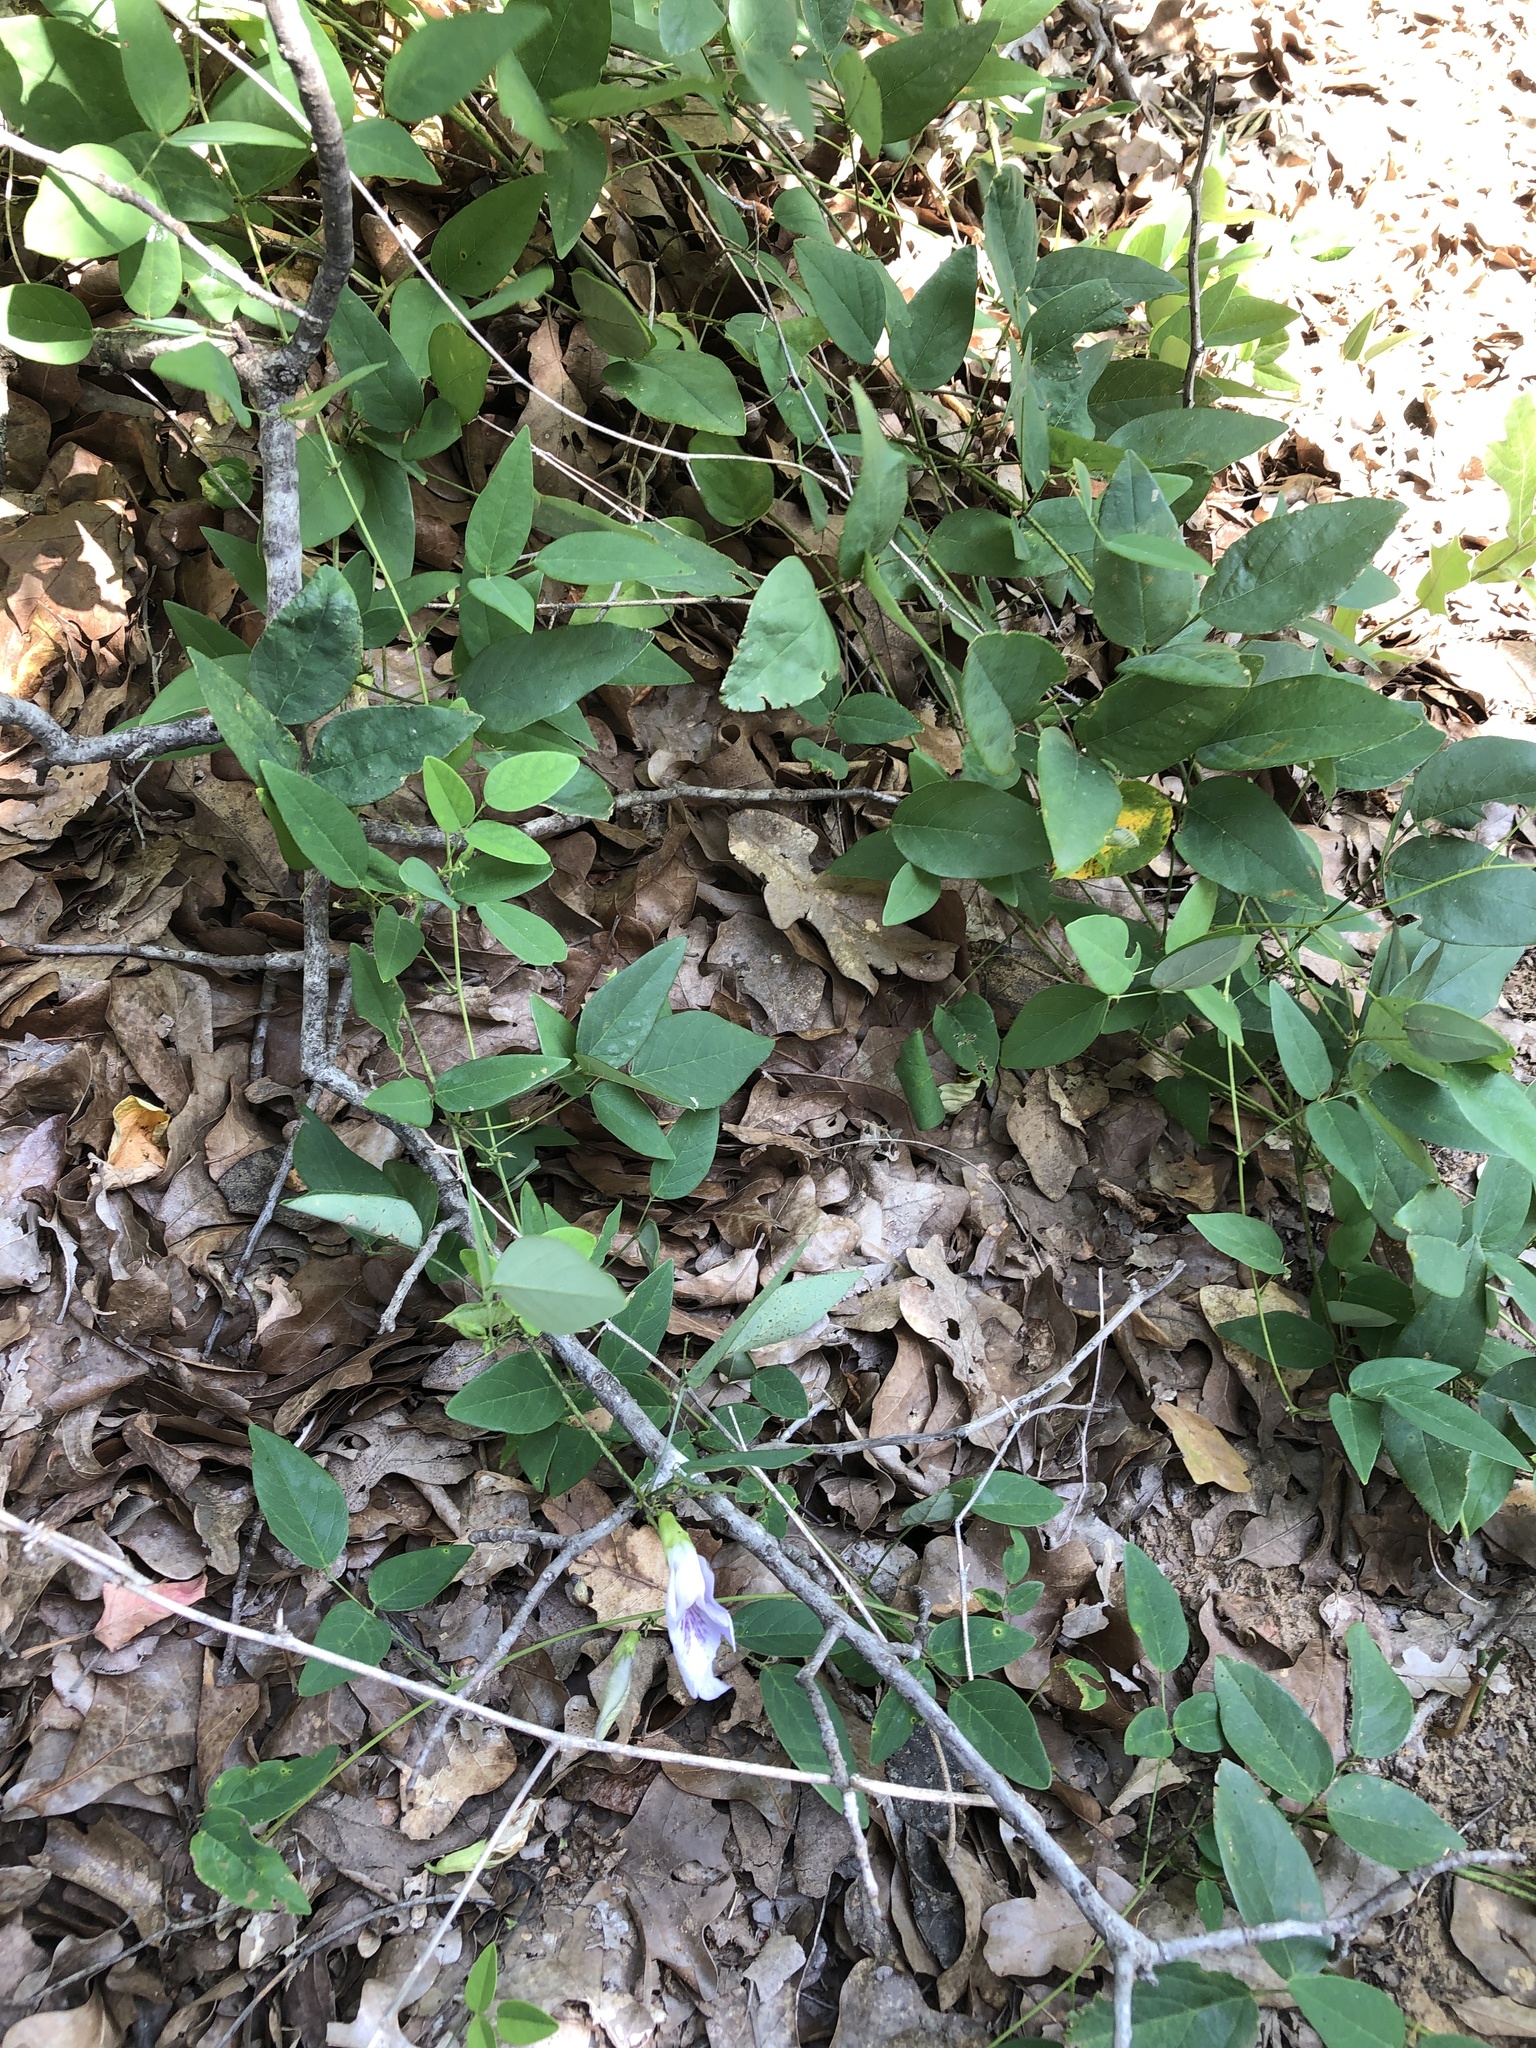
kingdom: Plantae
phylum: Tracheophyta
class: Magnoliopsida
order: Fabales
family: Fabaceae
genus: Clitoria
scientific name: Clitoria mariana
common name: Butterfly-pea
